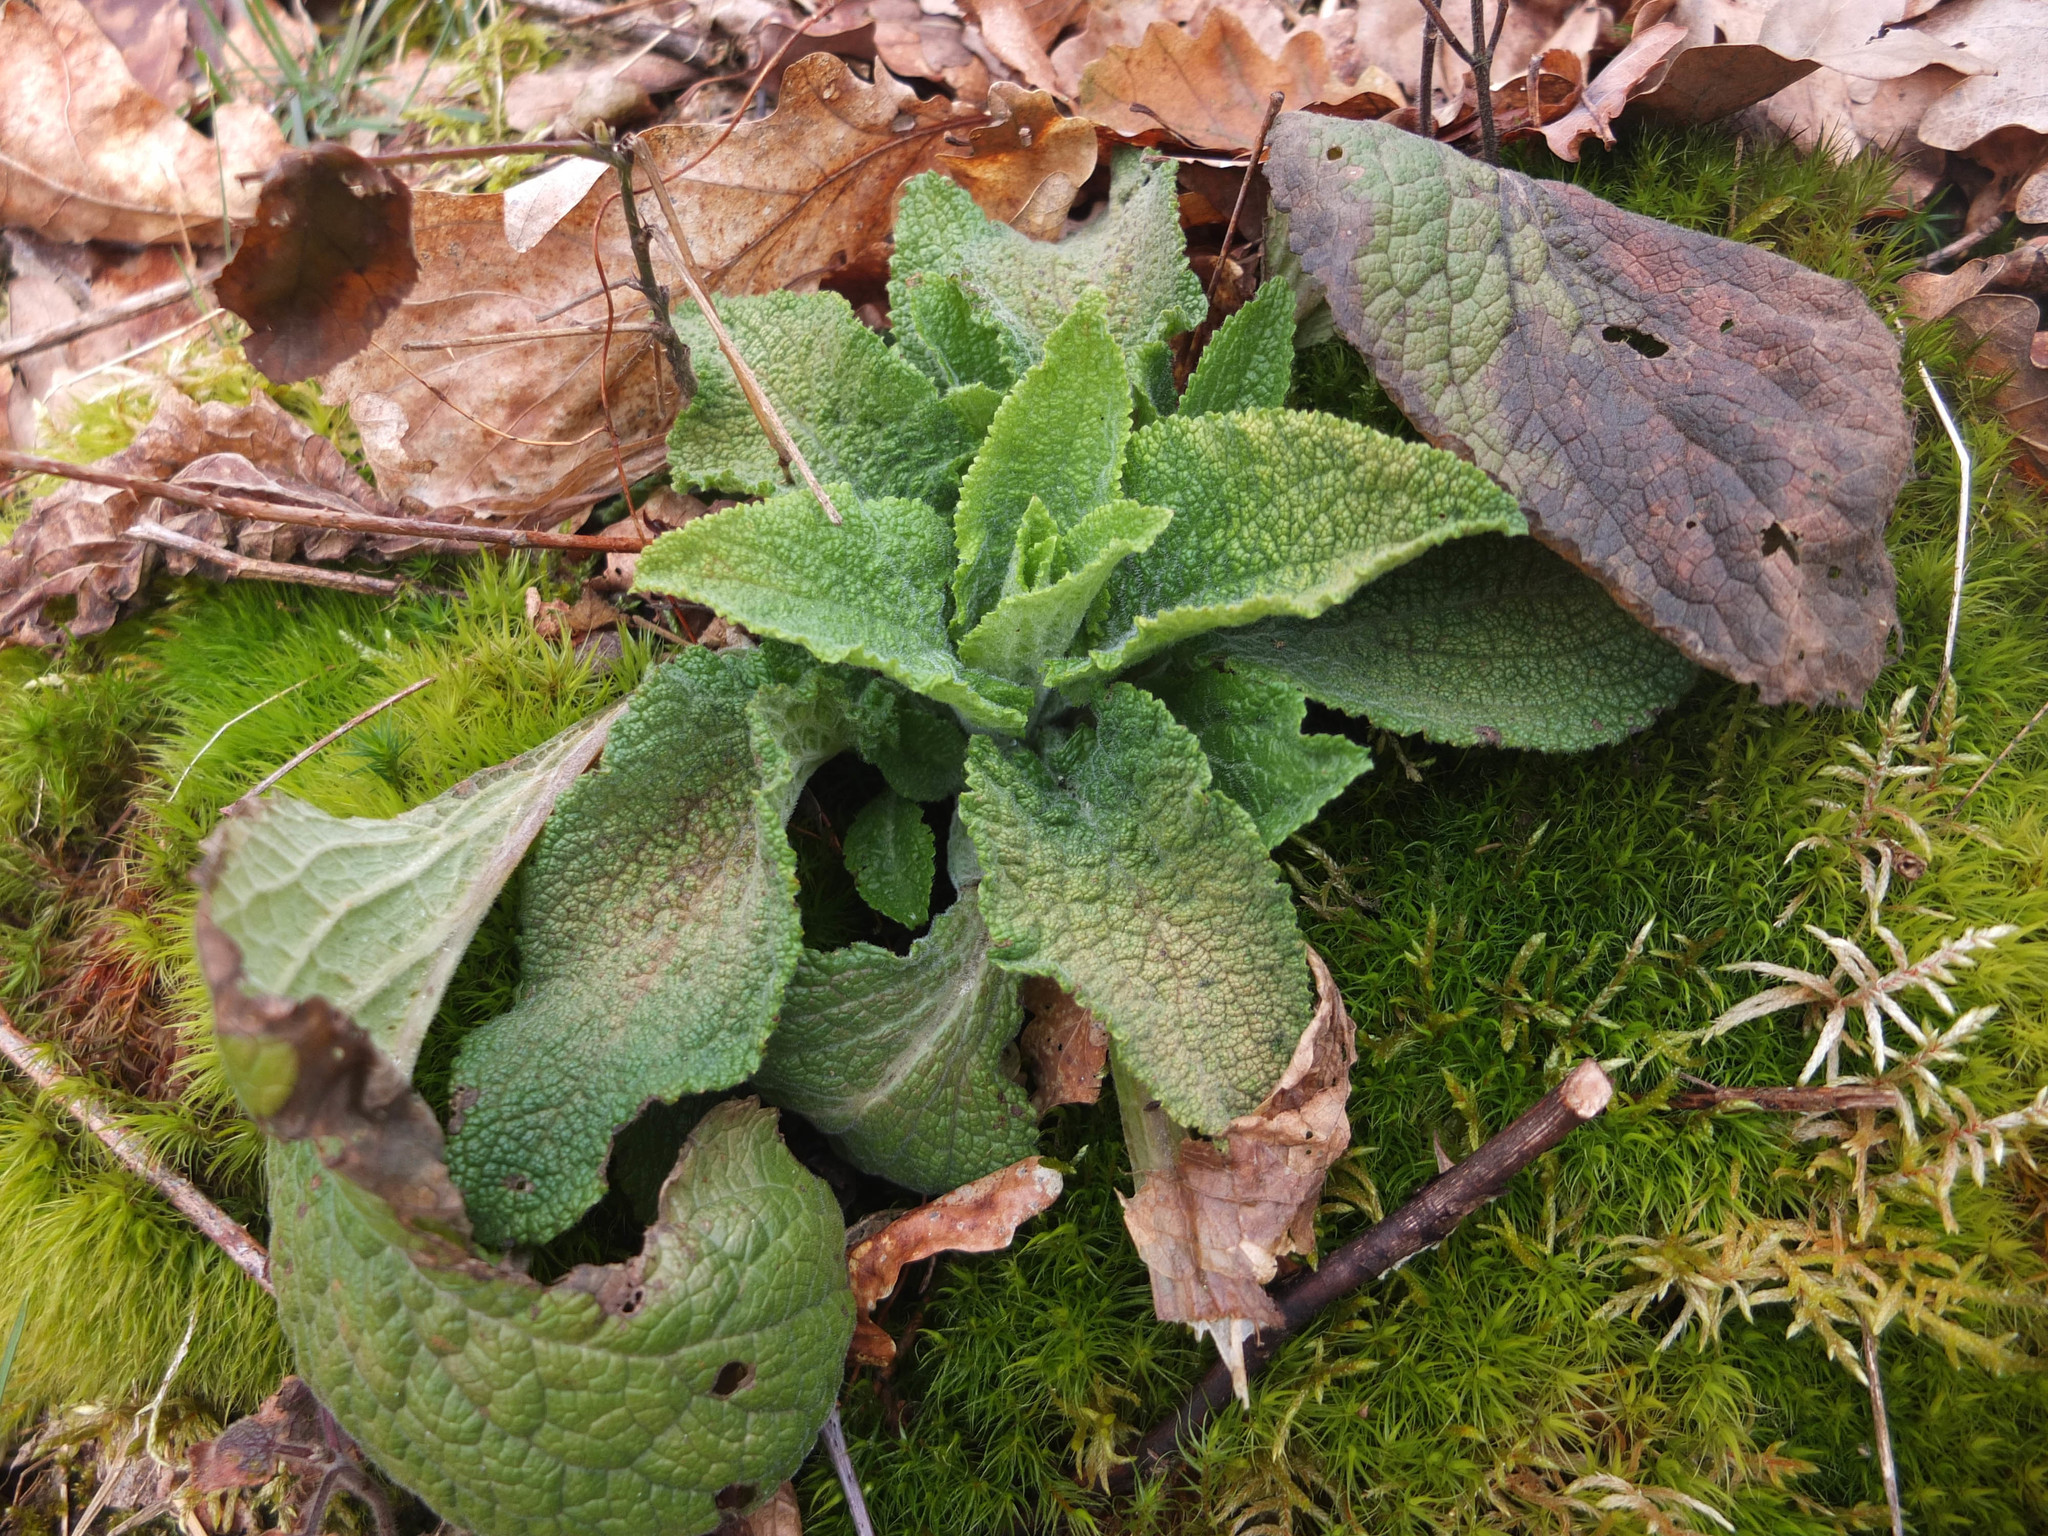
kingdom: Plantae
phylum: Tracheophyta
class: Magnoliopsida
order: Lamiales
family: Plantaginaceae
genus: Digitalis
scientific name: Digitalis purpurea
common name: Foxglove
